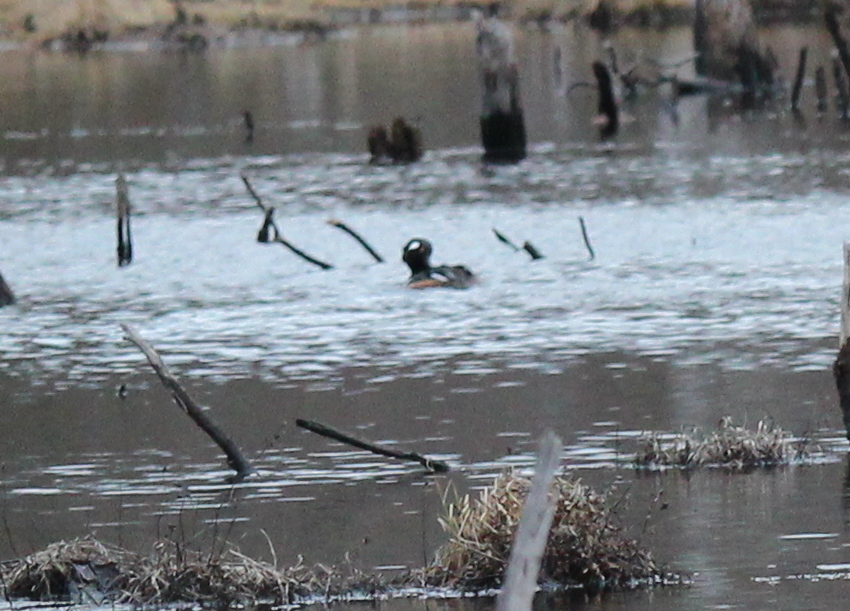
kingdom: Animalia
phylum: Chordata
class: Aves
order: Anseriformes
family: Anatidae
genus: Lophodytes
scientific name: Lophodytes cucullatus
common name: Hooded merganser
